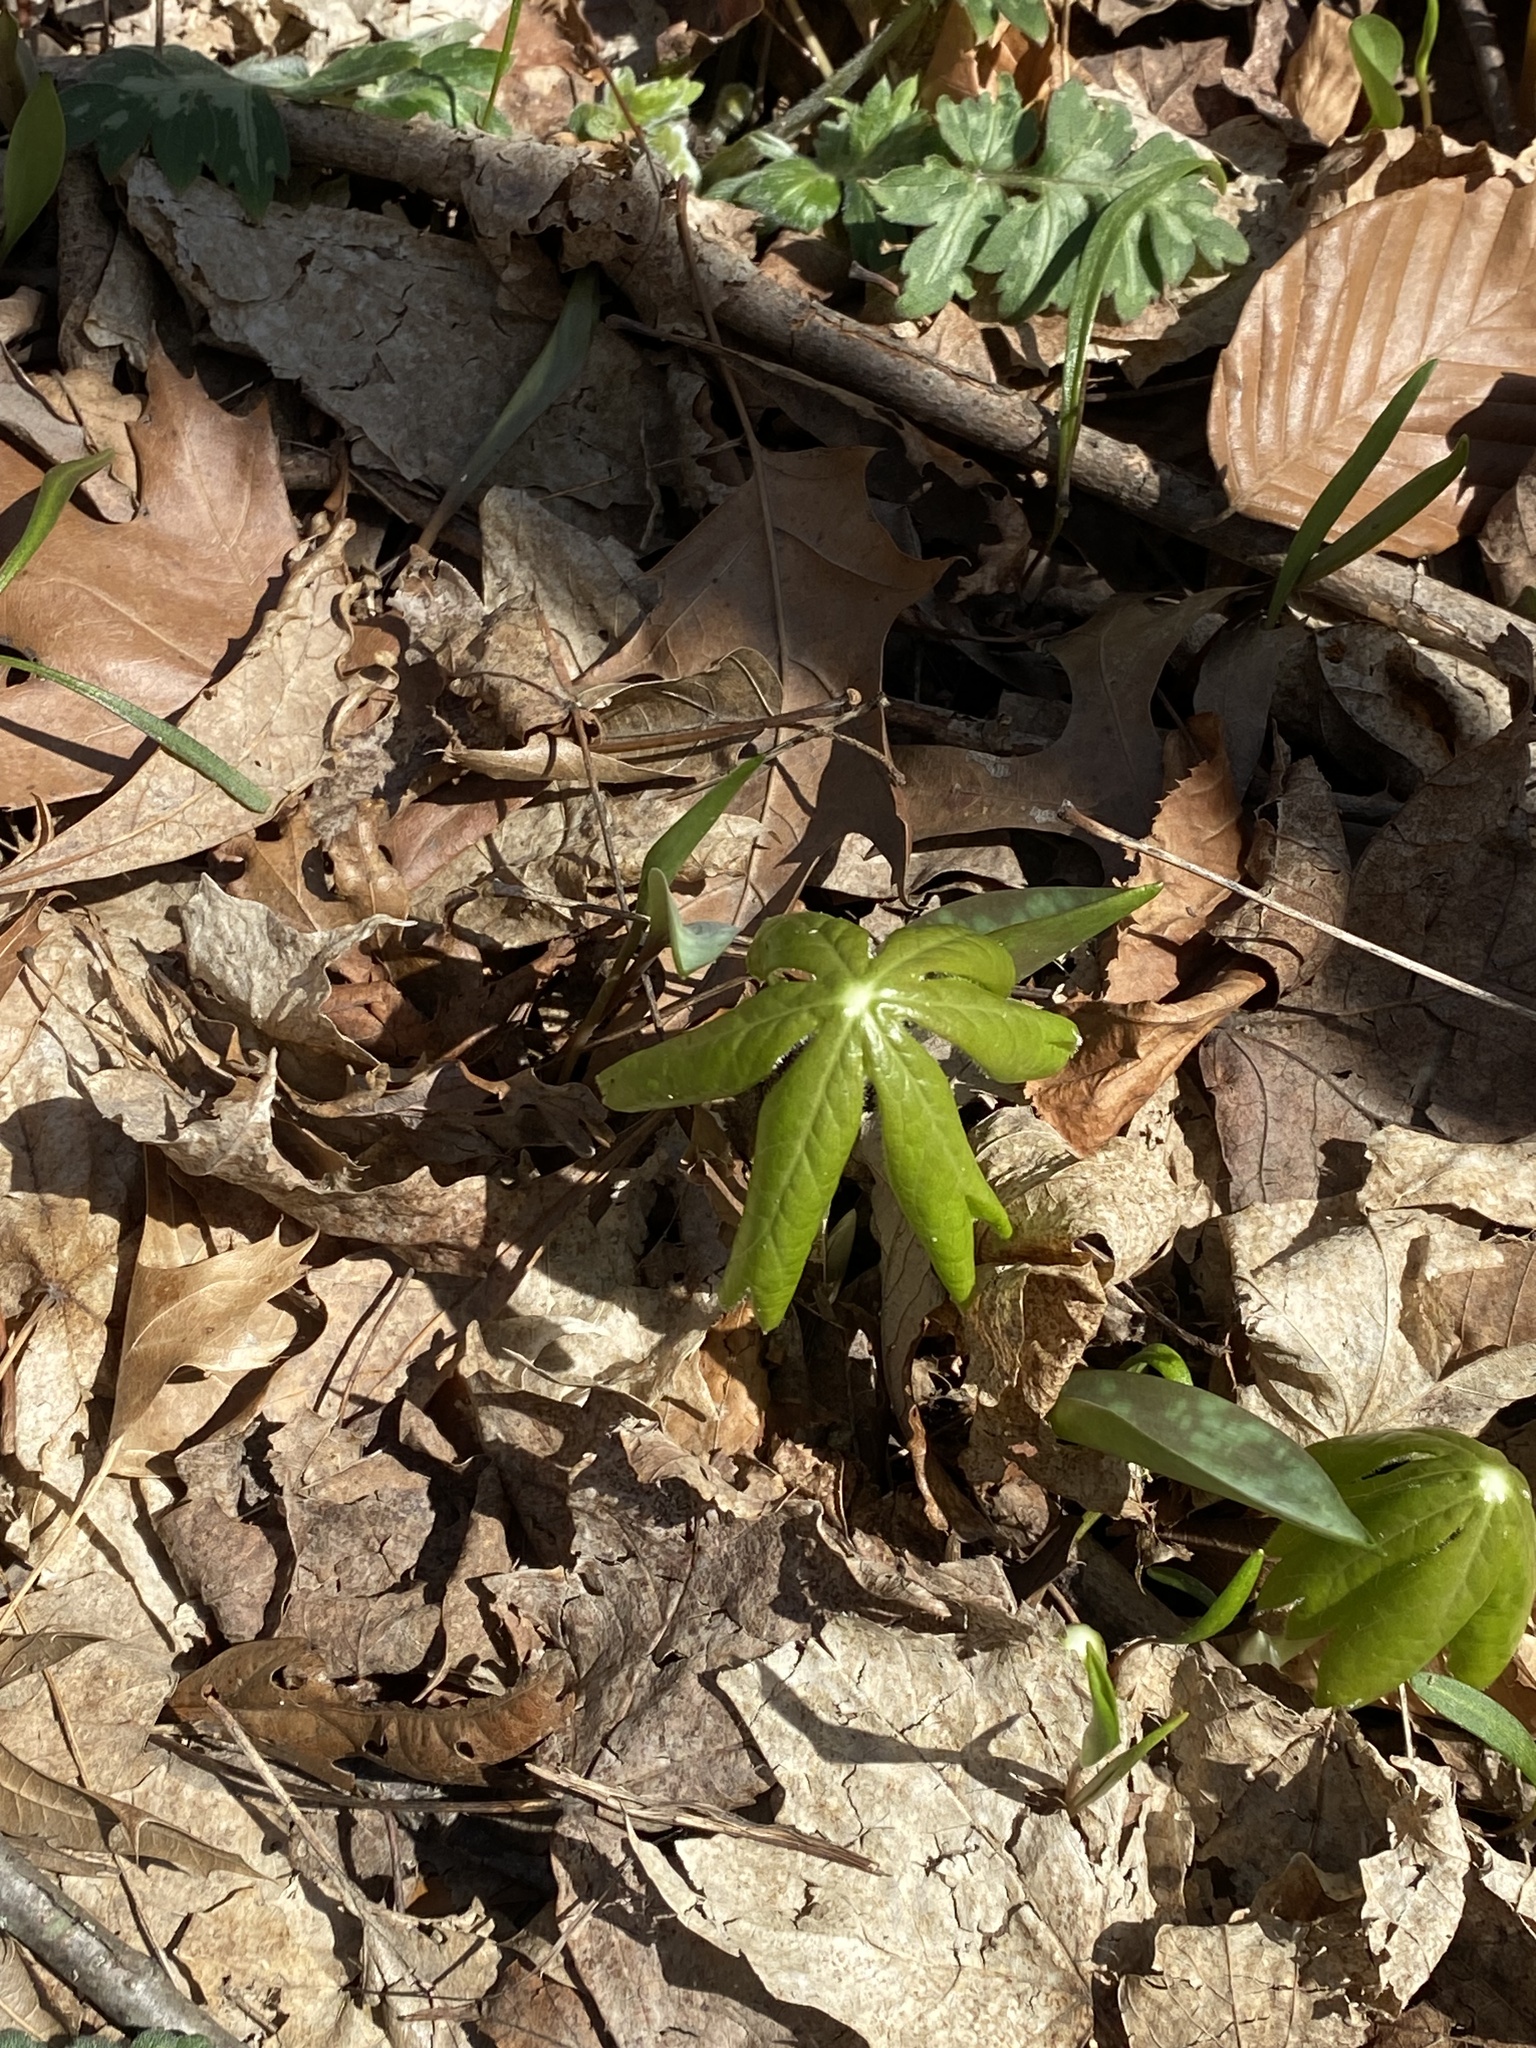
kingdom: Plantae
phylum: Tracheophyta
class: Magnoliopsida
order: Ranunculales
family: Berberidaceae
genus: Podophyllum
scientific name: Podophyllum peltatum
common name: Wild mandrake
